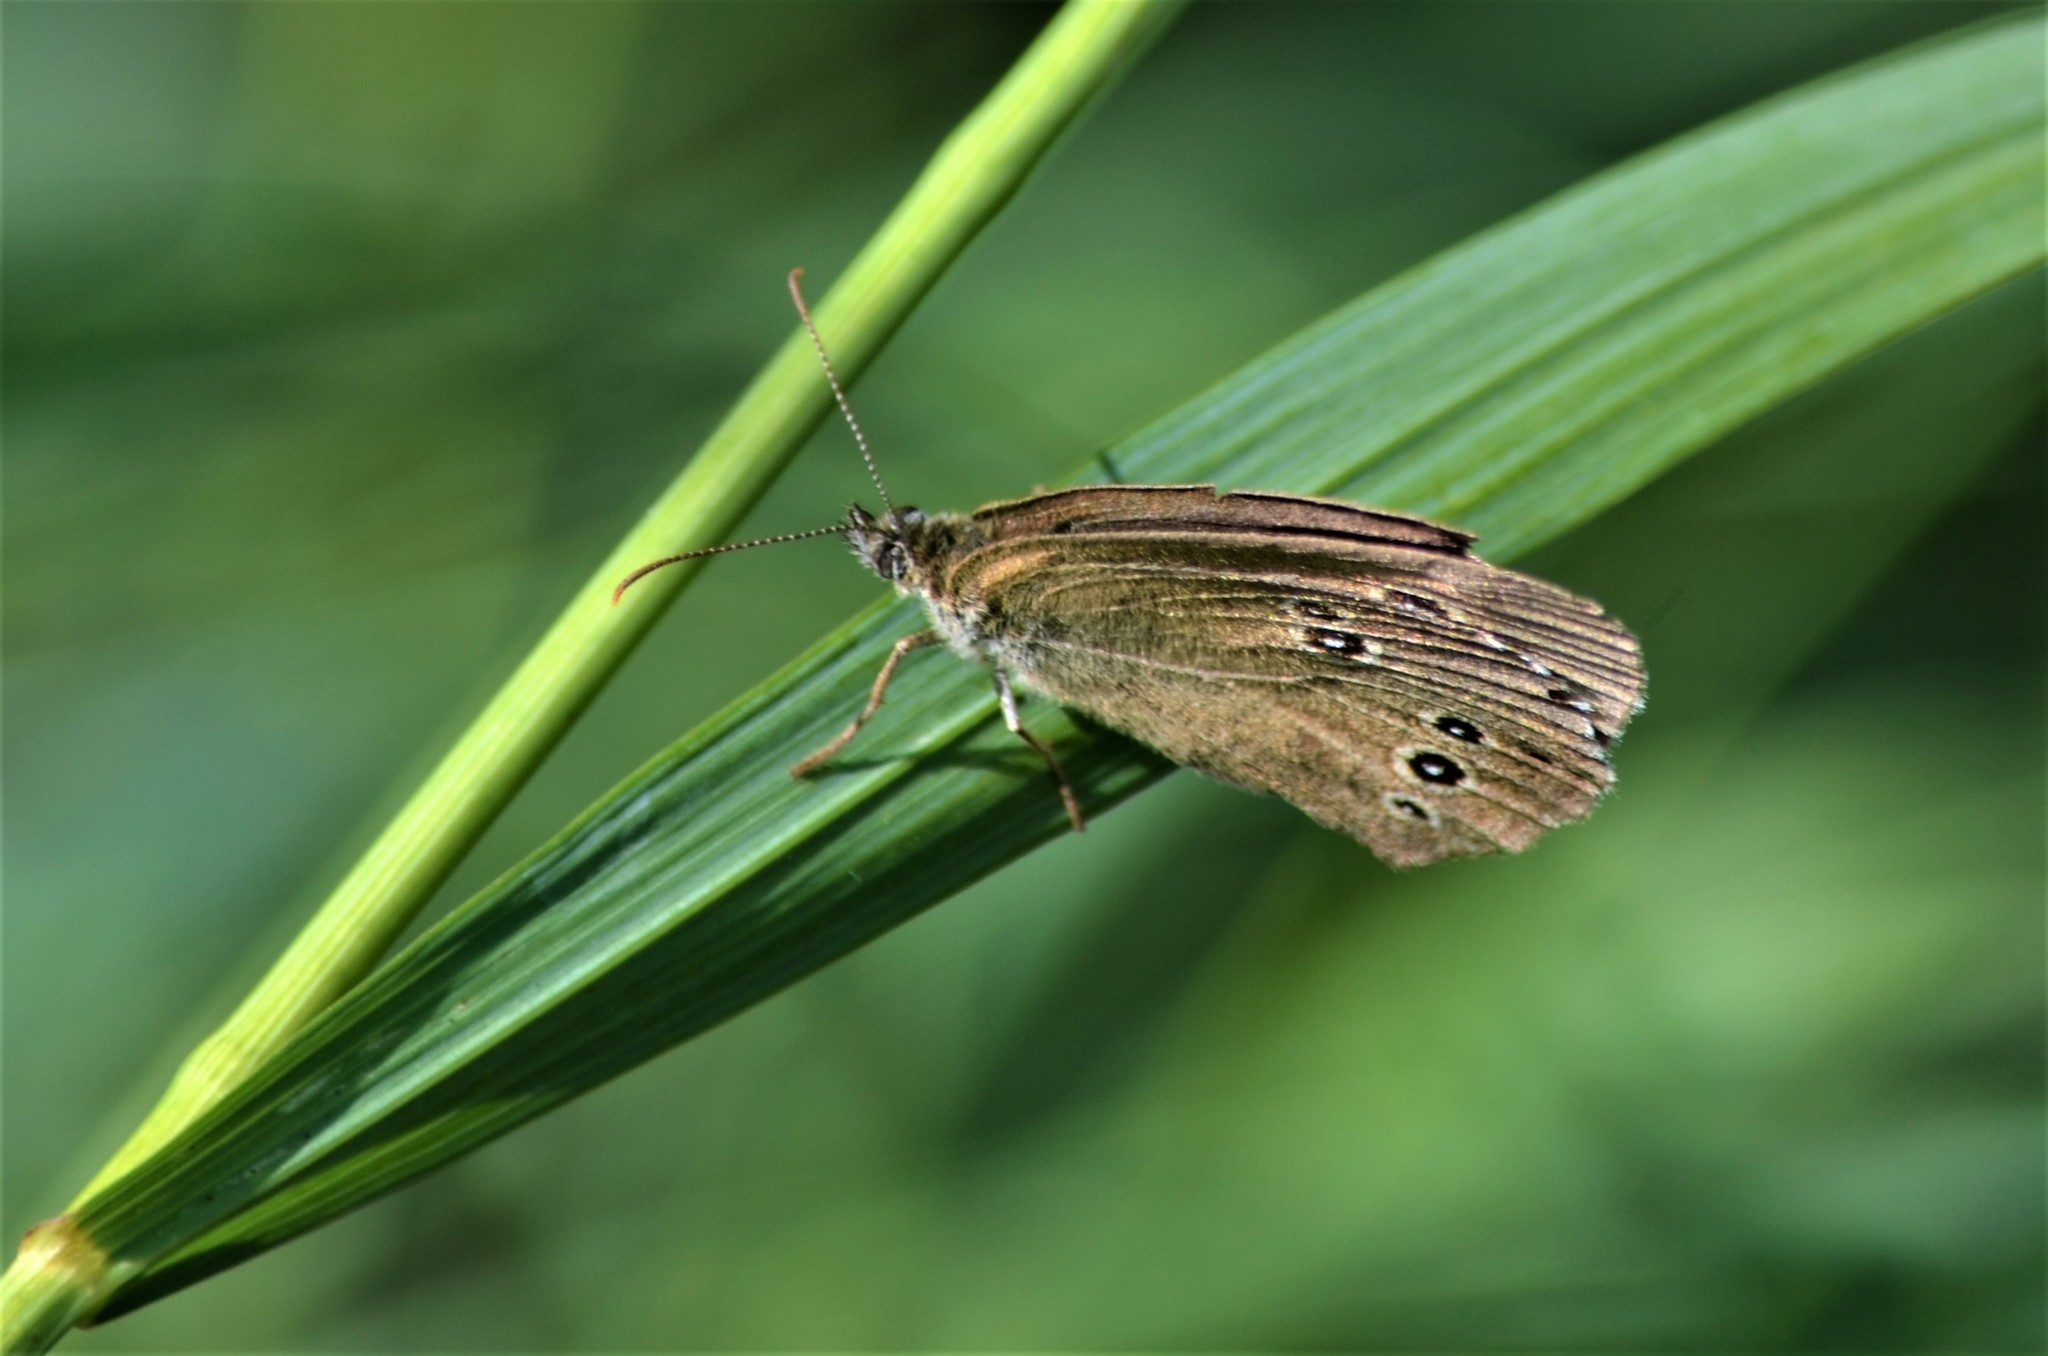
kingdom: Animalia
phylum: Arthropoda
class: Insecta
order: Lepidoptera
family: Nymphalidae
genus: Aphantopus
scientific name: Aphantopus hyperantus
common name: Ringlet
